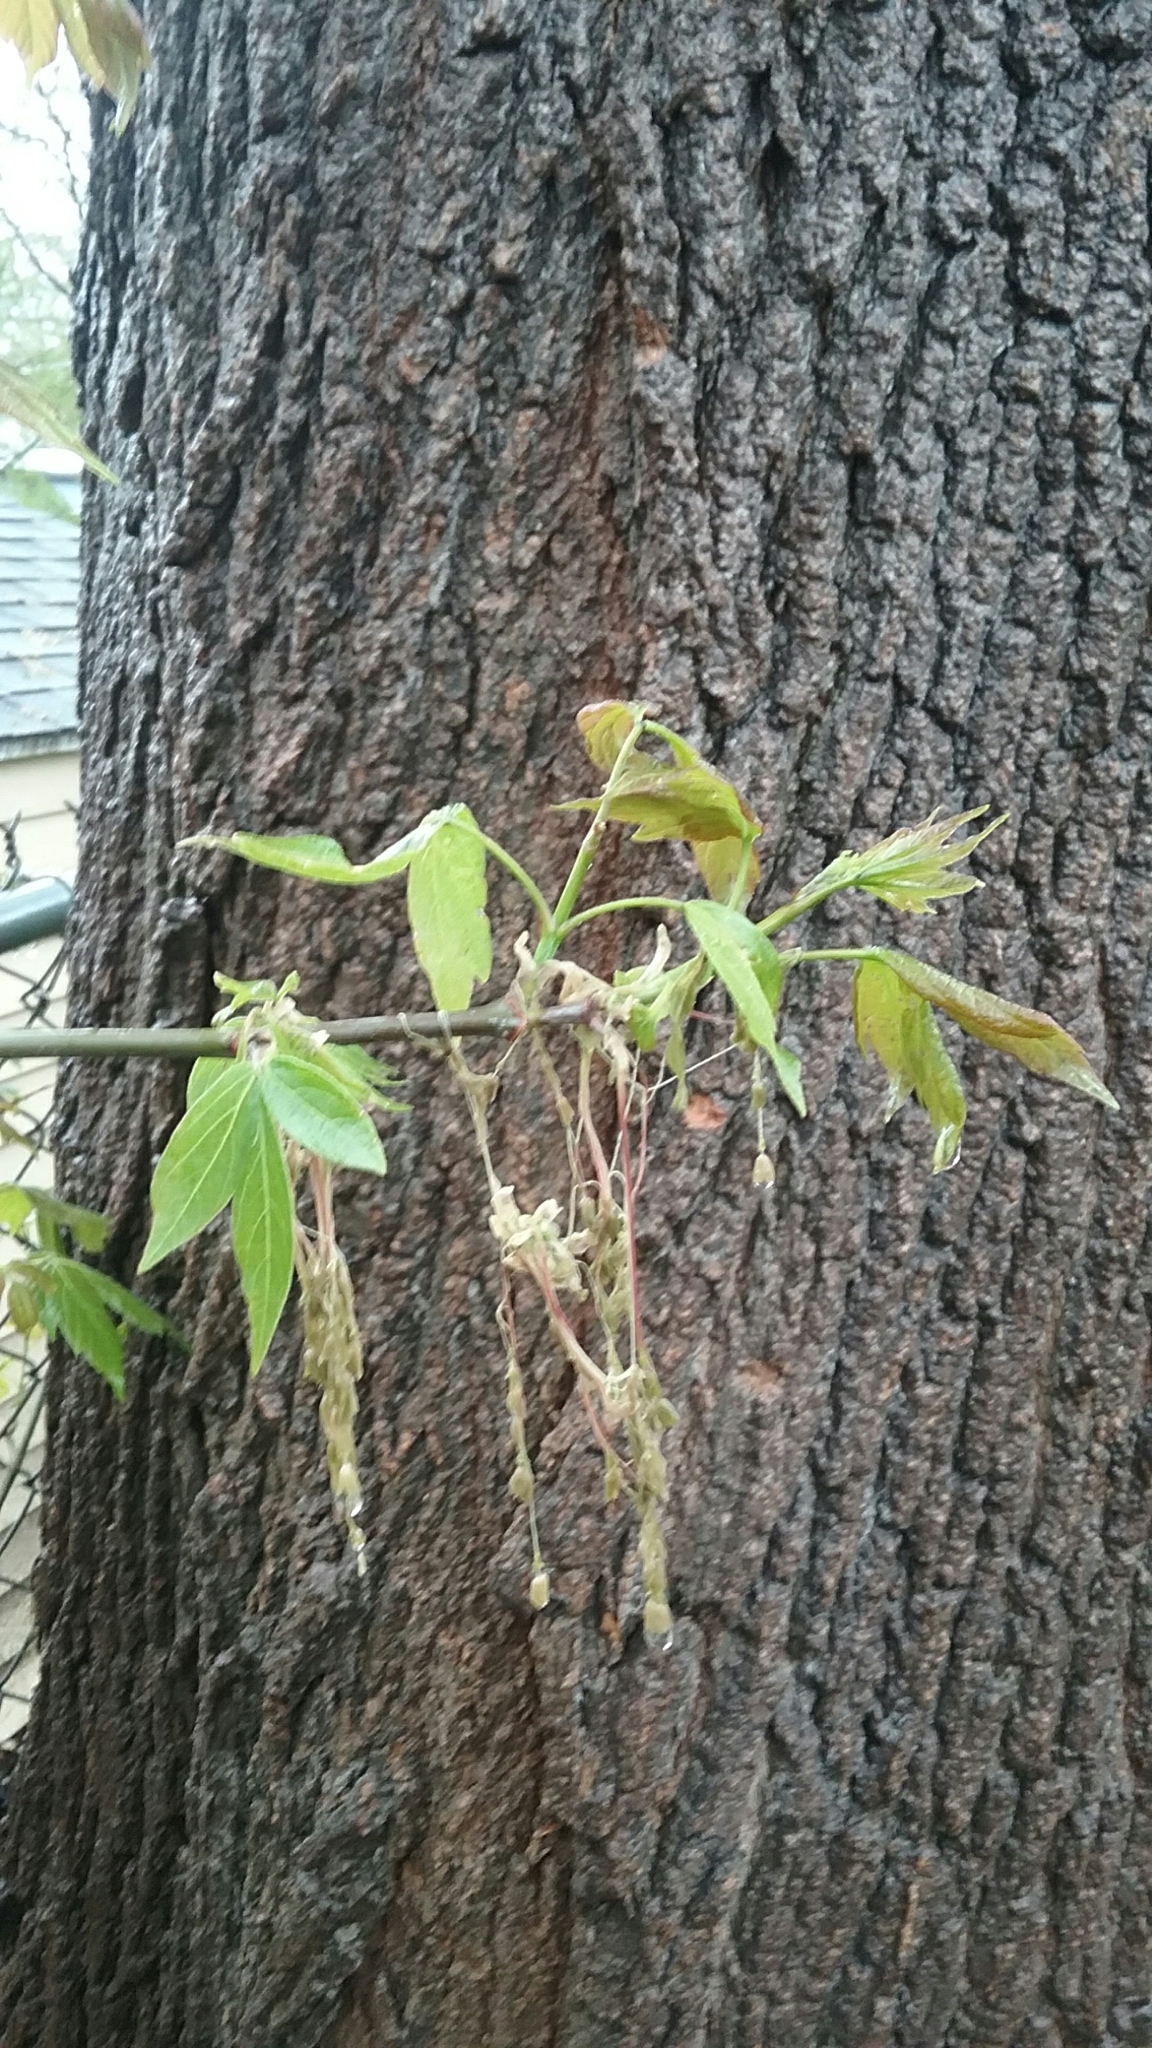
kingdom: Plantae
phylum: Tracheophyta
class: Magnoliopsida
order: Sapindales
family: Sapindaceae
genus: Acer
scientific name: Acer negundo
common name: Ashleaf maple
